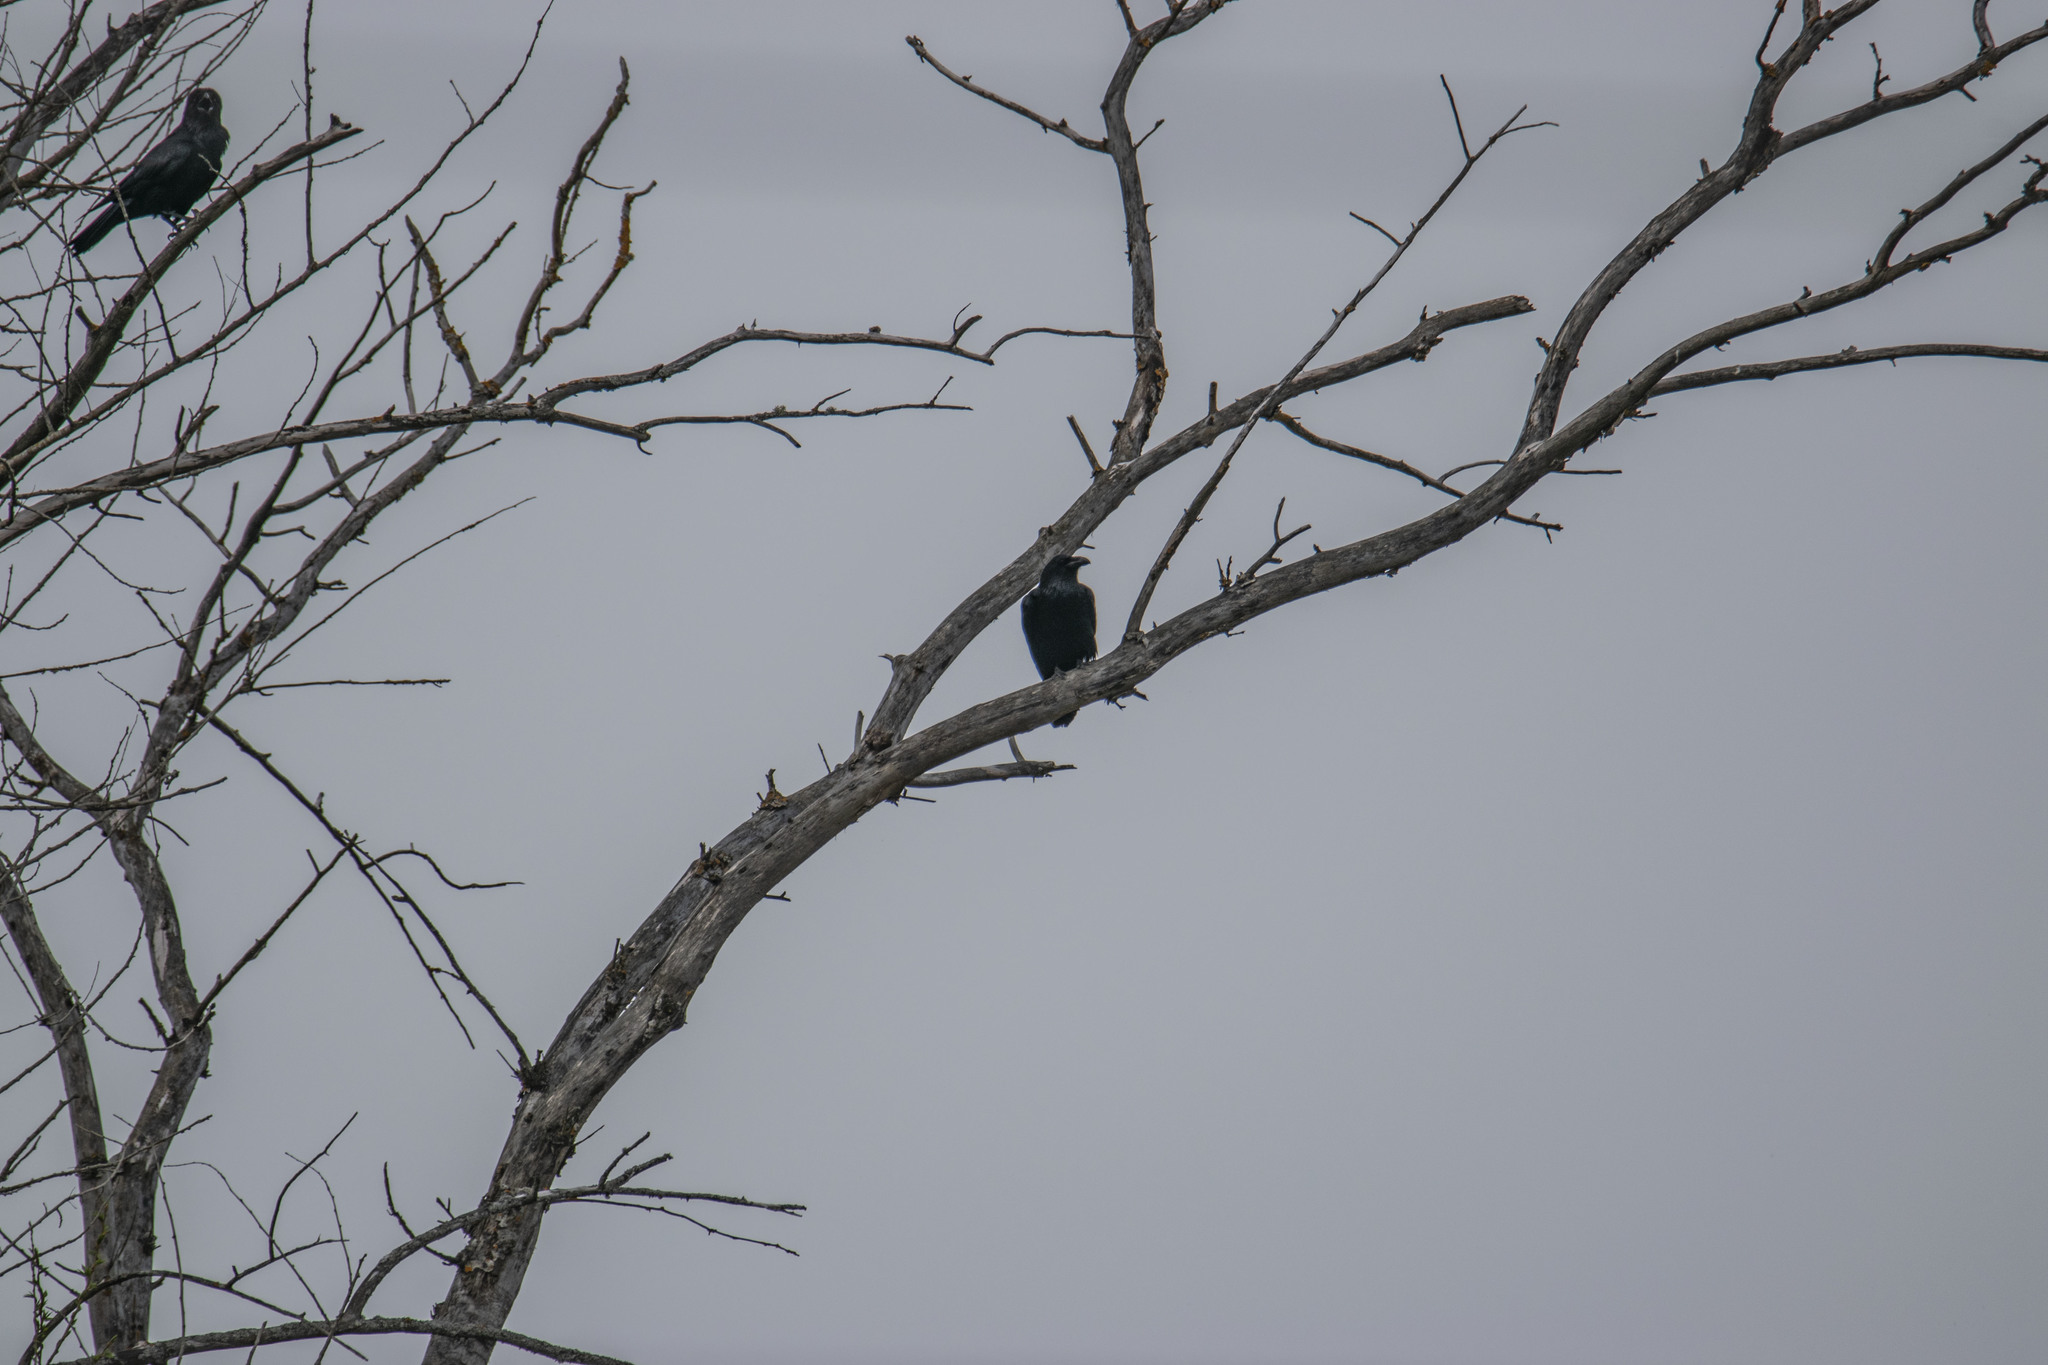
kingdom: Animalia
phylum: Chordata
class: Aves
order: Passeriformes
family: Corvidae
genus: Corvus
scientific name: Corvus corax
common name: Common raven
